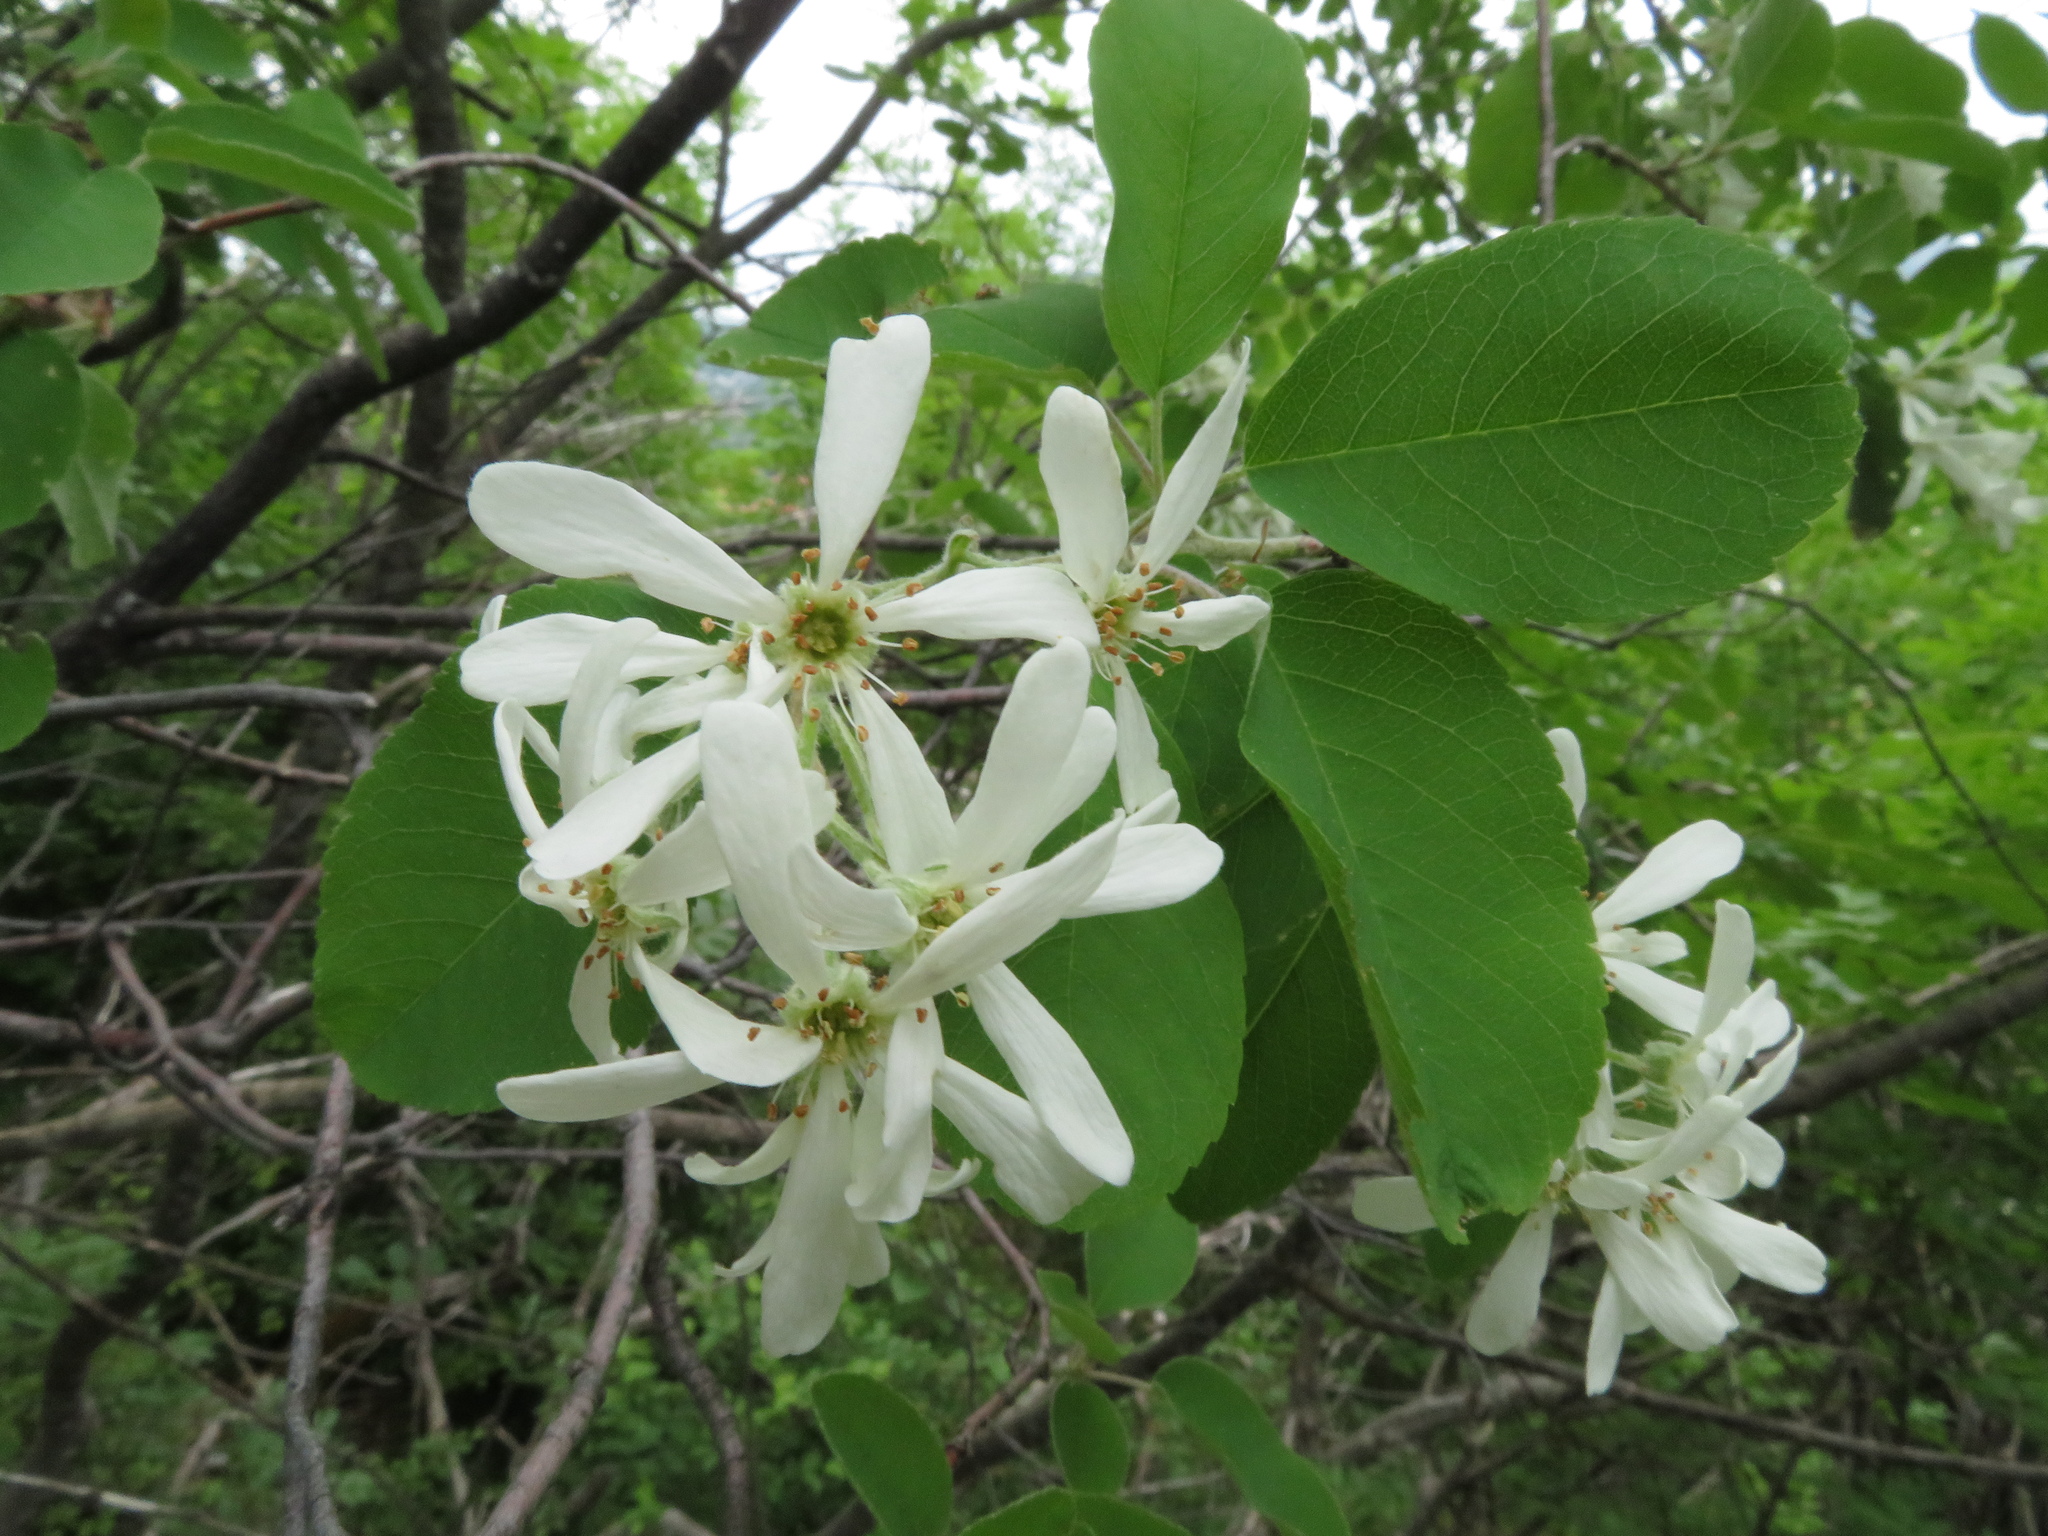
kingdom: Plantae
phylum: Tracheophyta
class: Magnoliopsida
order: Rosales
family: Rosaceae
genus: Amelanchier
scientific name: Amelanchier ovalis
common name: Serviceberry
